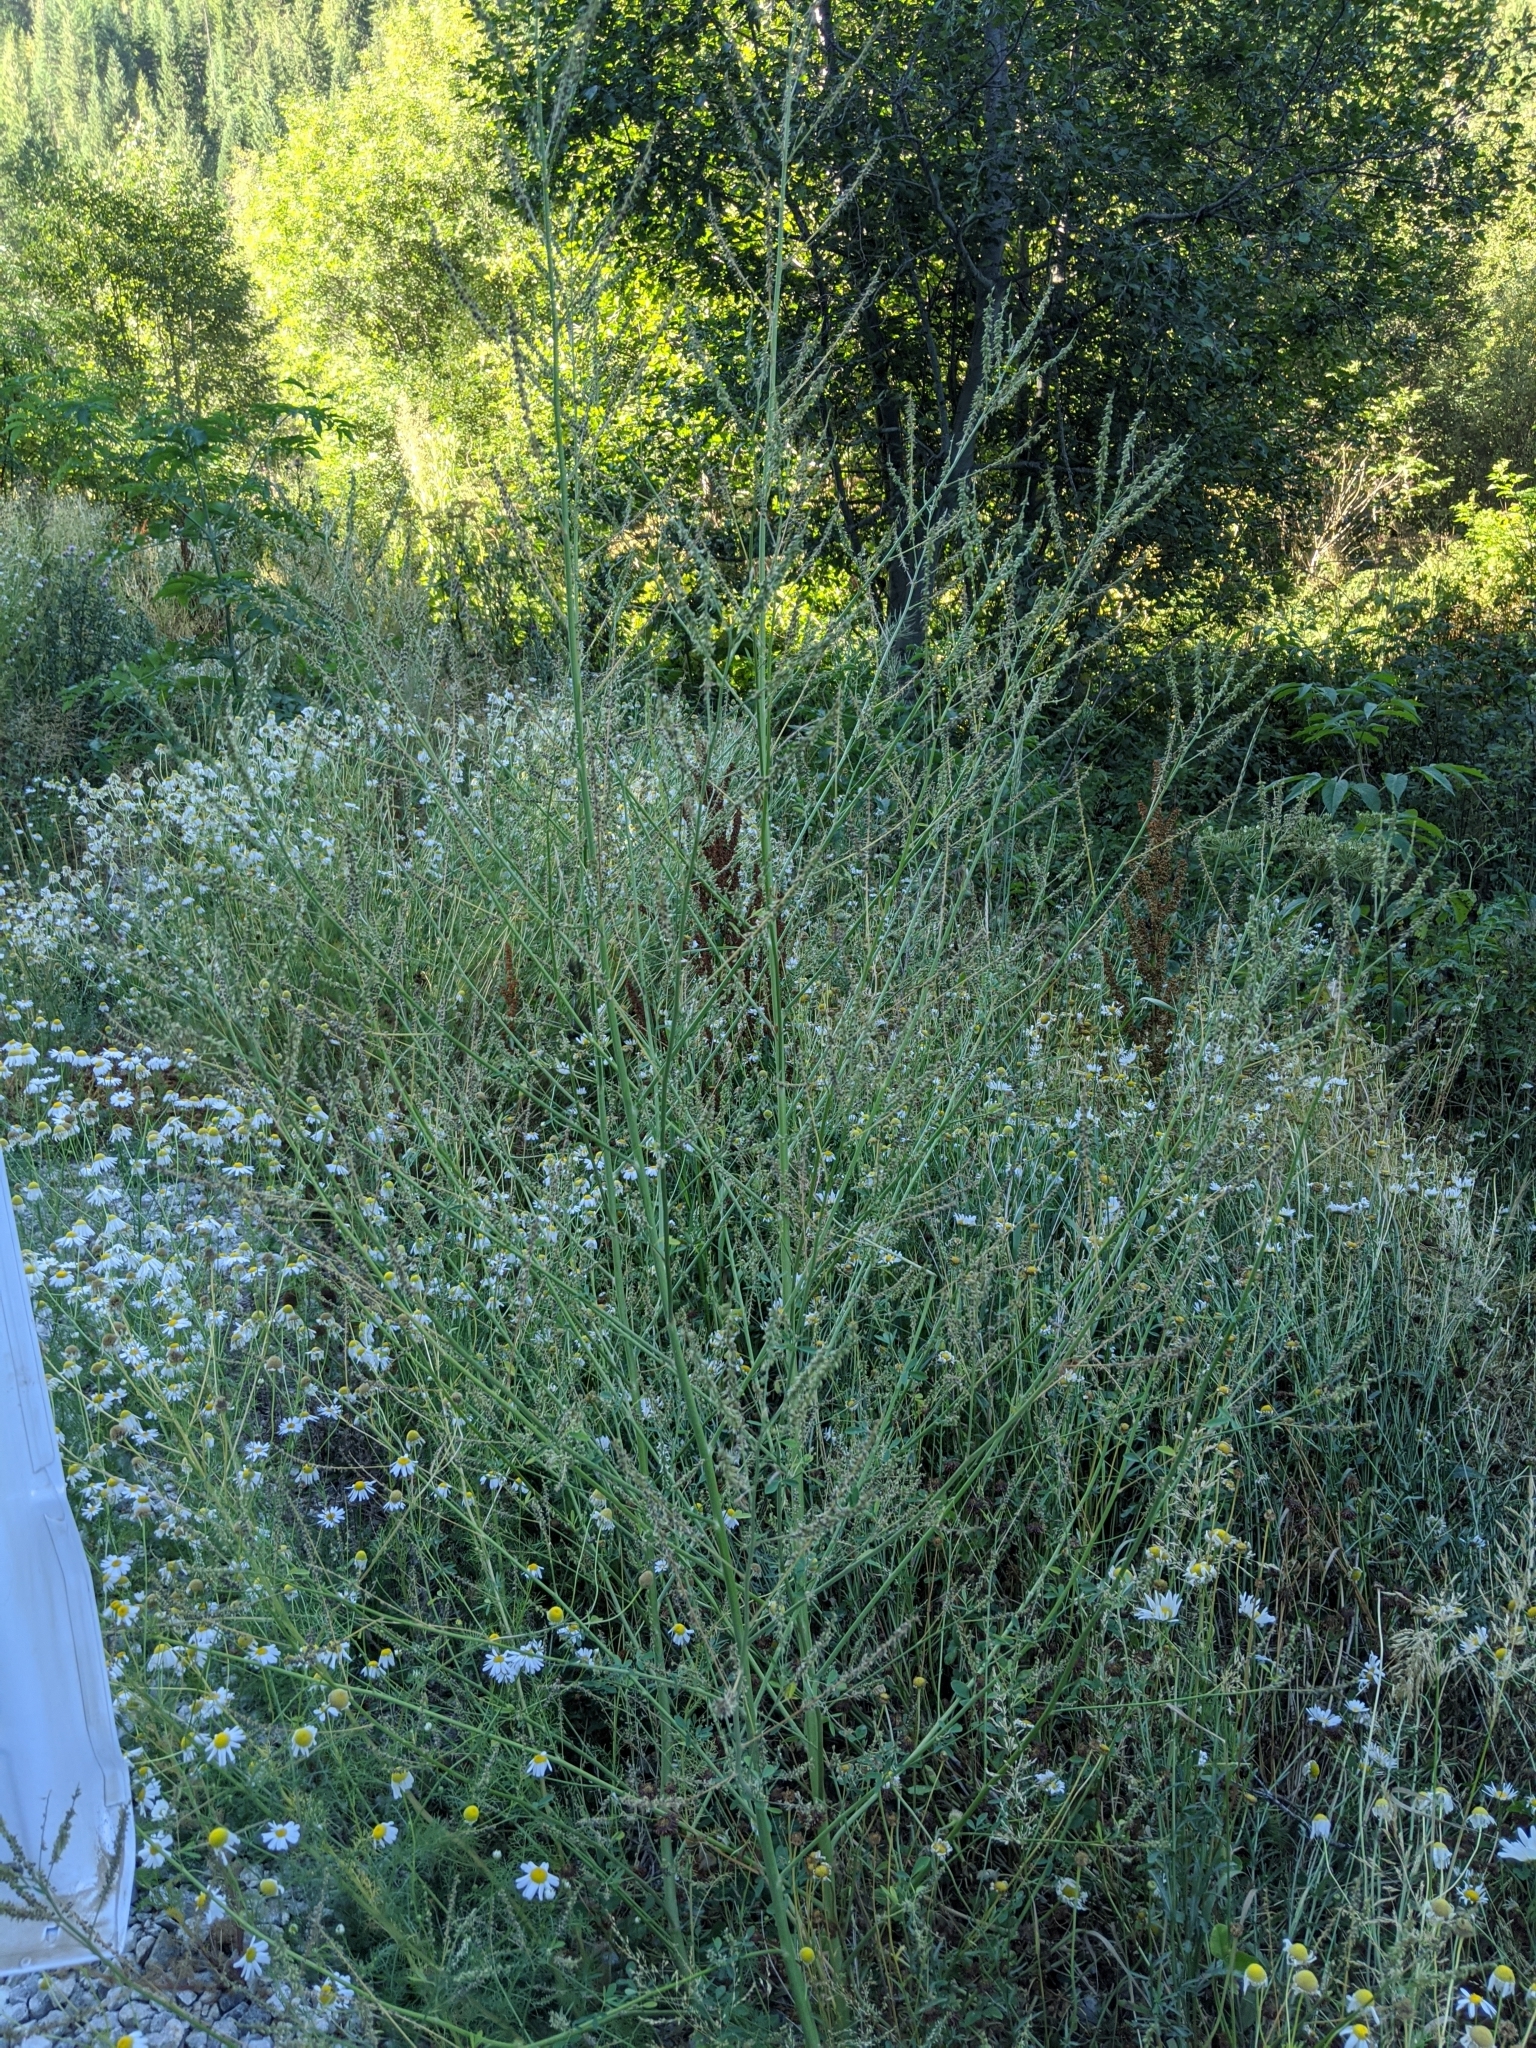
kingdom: Plantae
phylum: Tracheophyta
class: Magnoliopsida
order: Fabales
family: Fabaceae
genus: Melilotus
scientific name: Melilotus albus
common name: White melilot
